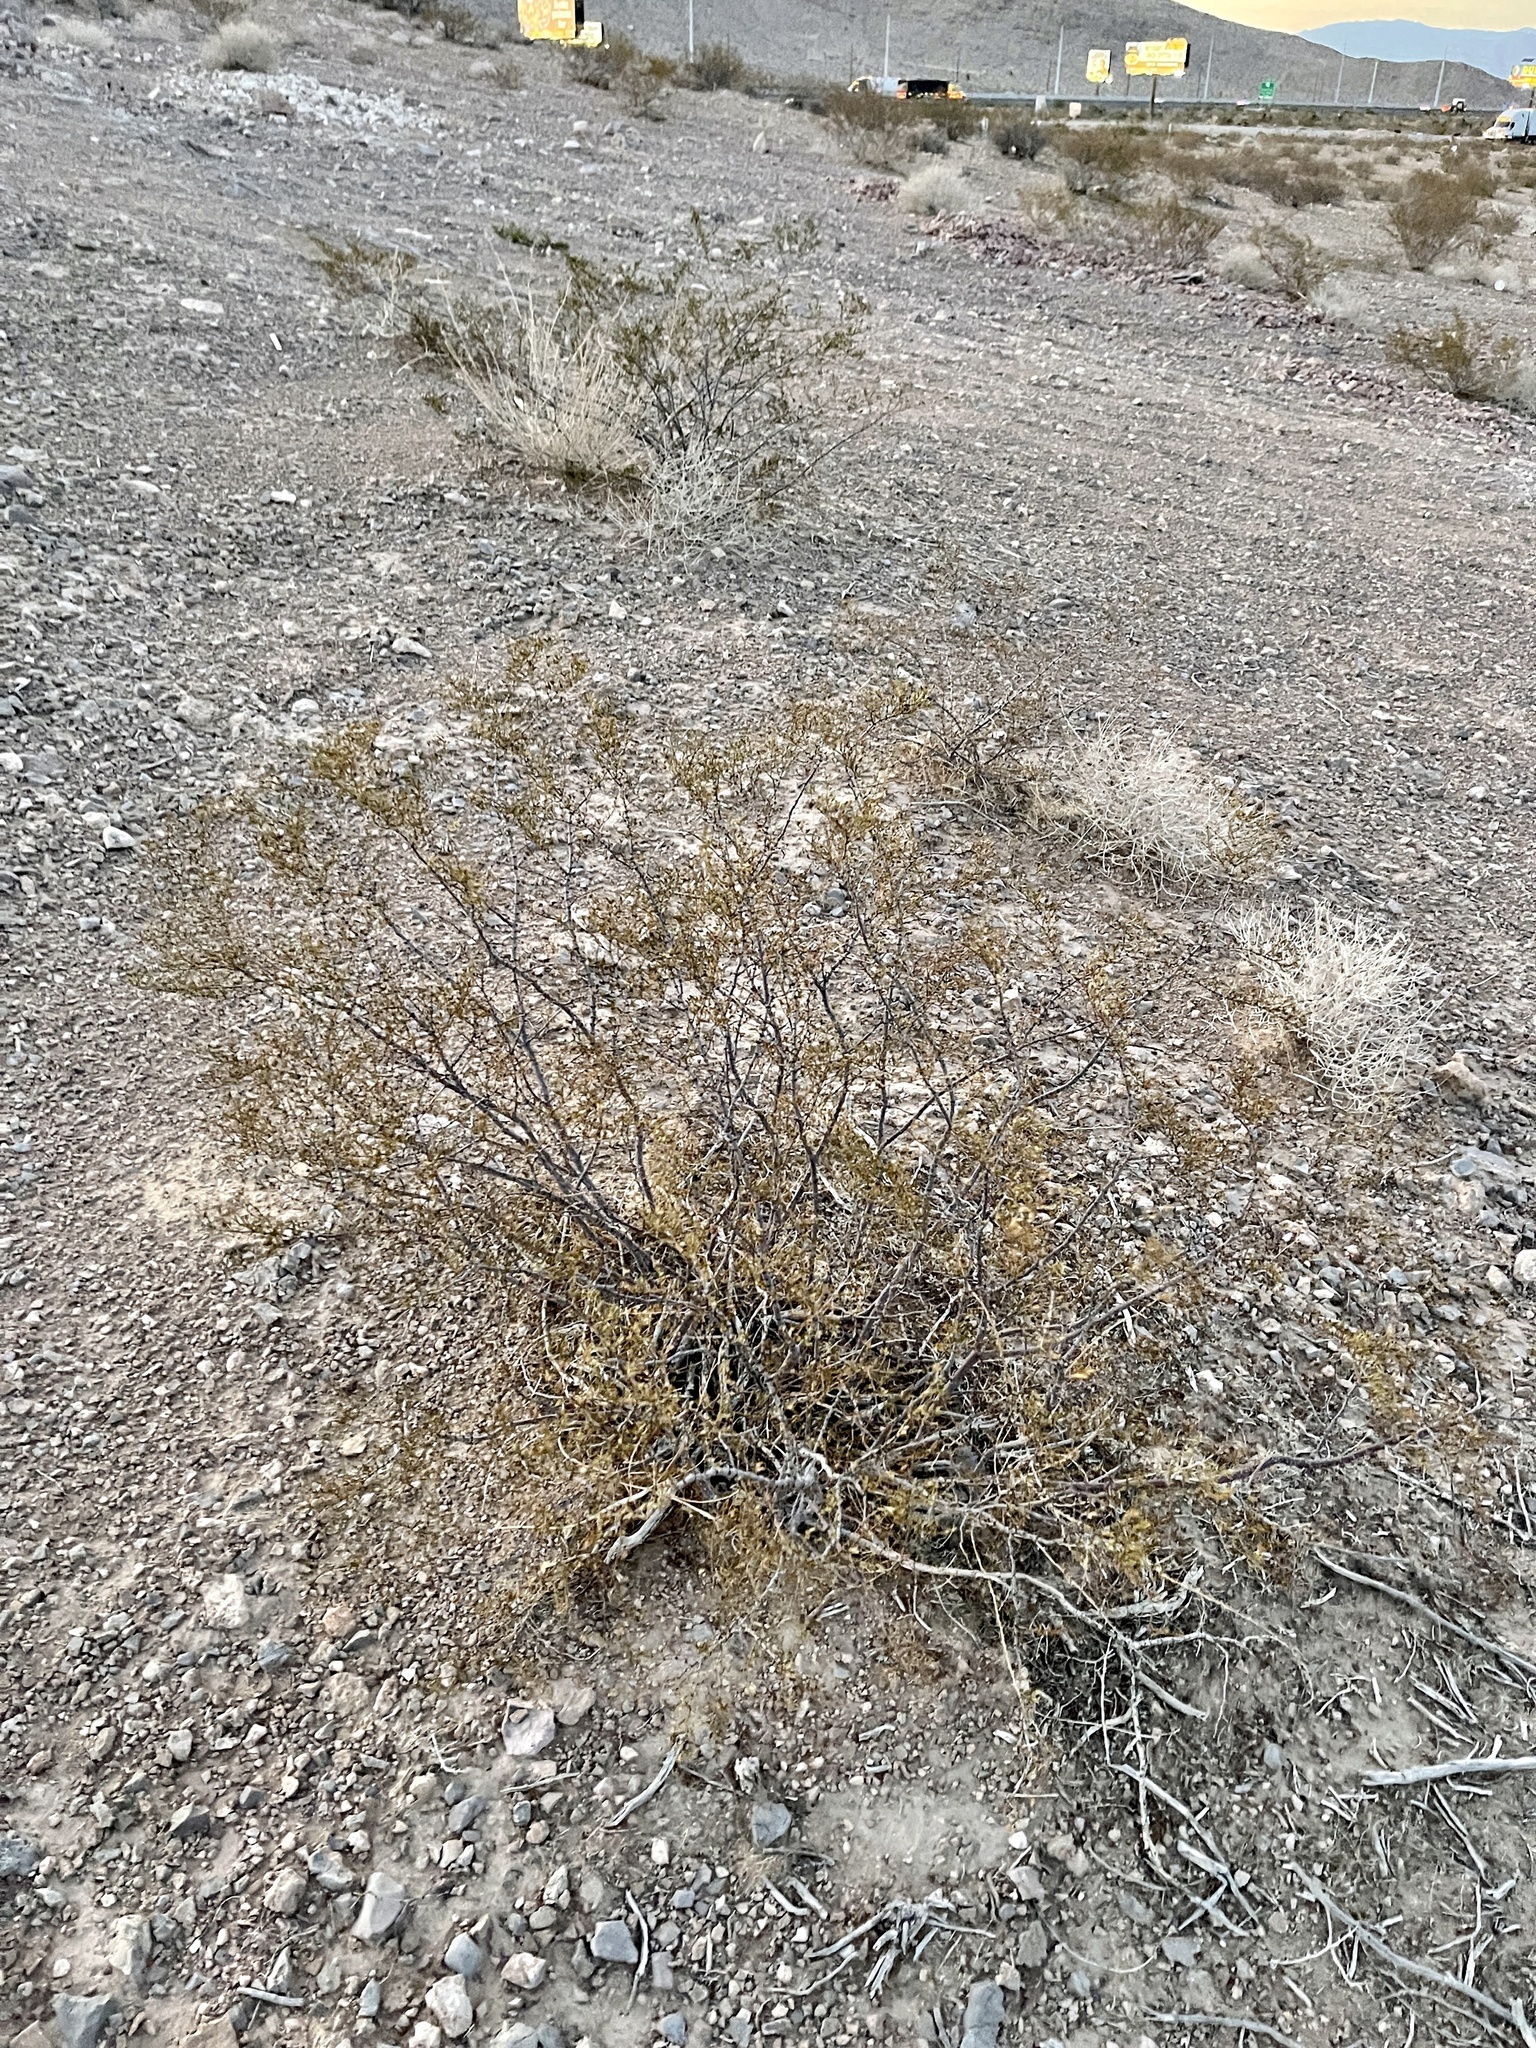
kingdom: Plantae
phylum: Tracheophyta
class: Magnoliopsida
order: Zygophyllales
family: Zygophyllaceae
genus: Larrea
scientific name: Larrea tridentata
